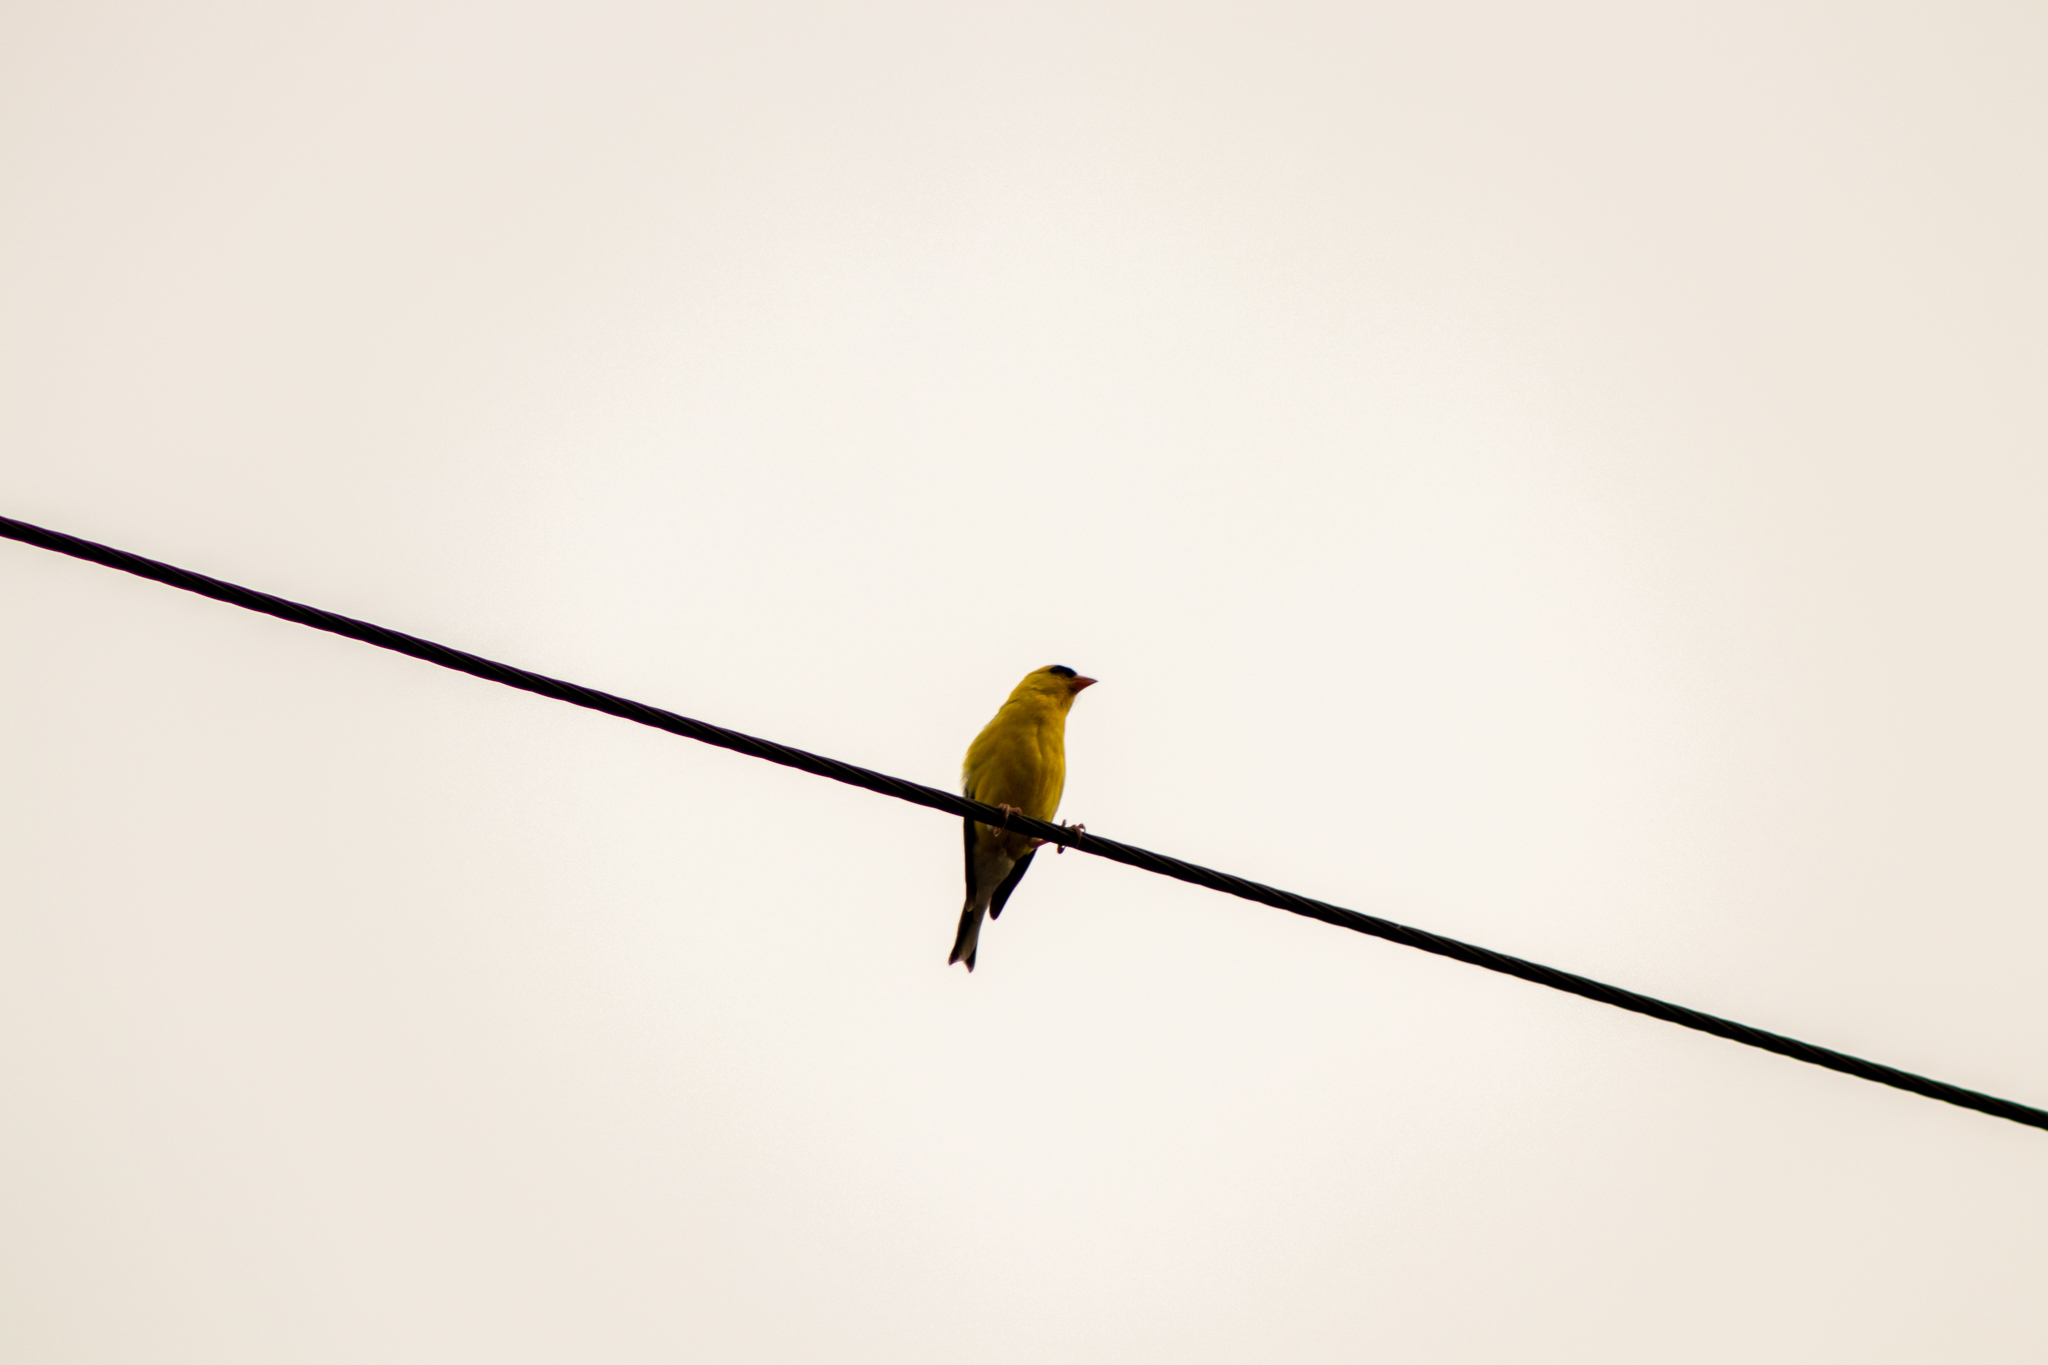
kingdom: Animalia
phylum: Chordata
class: Aves
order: Passeriformes
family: Fringillidae
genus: Spinus
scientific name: Spinus tristis
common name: American goldfinch
